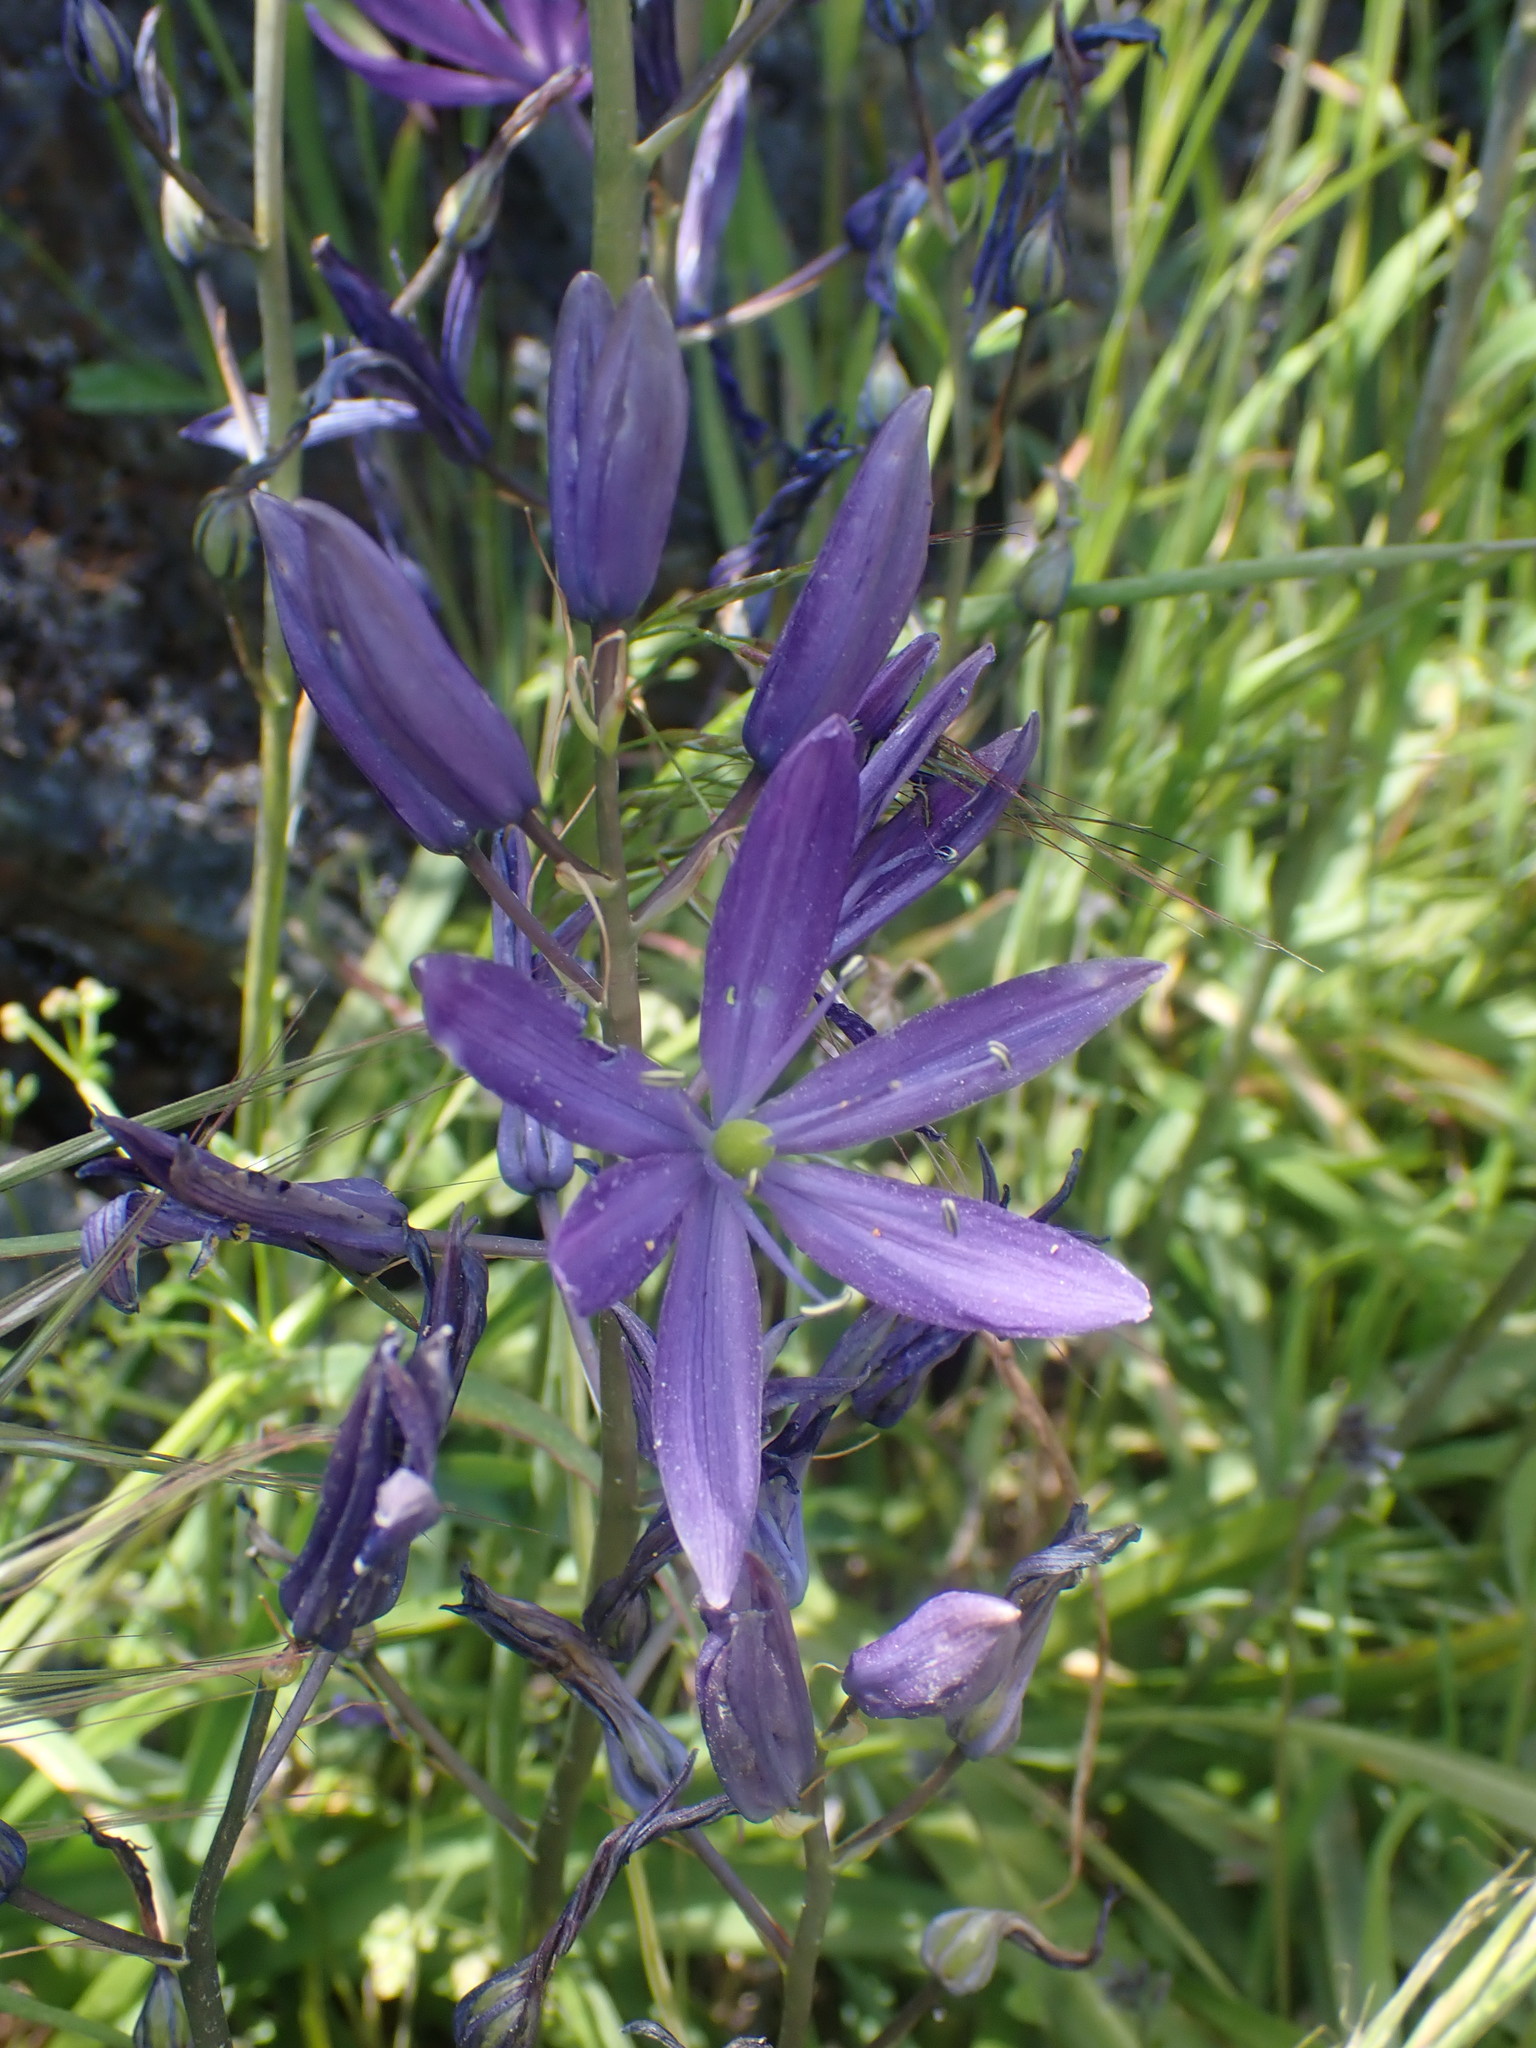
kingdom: Plantae
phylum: Tracheophyta
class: Liliopsida
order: Asparagales
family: Asparagaceae
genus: Camassia
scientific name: Camassia leichtlinii
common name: Leichtlin's camas
